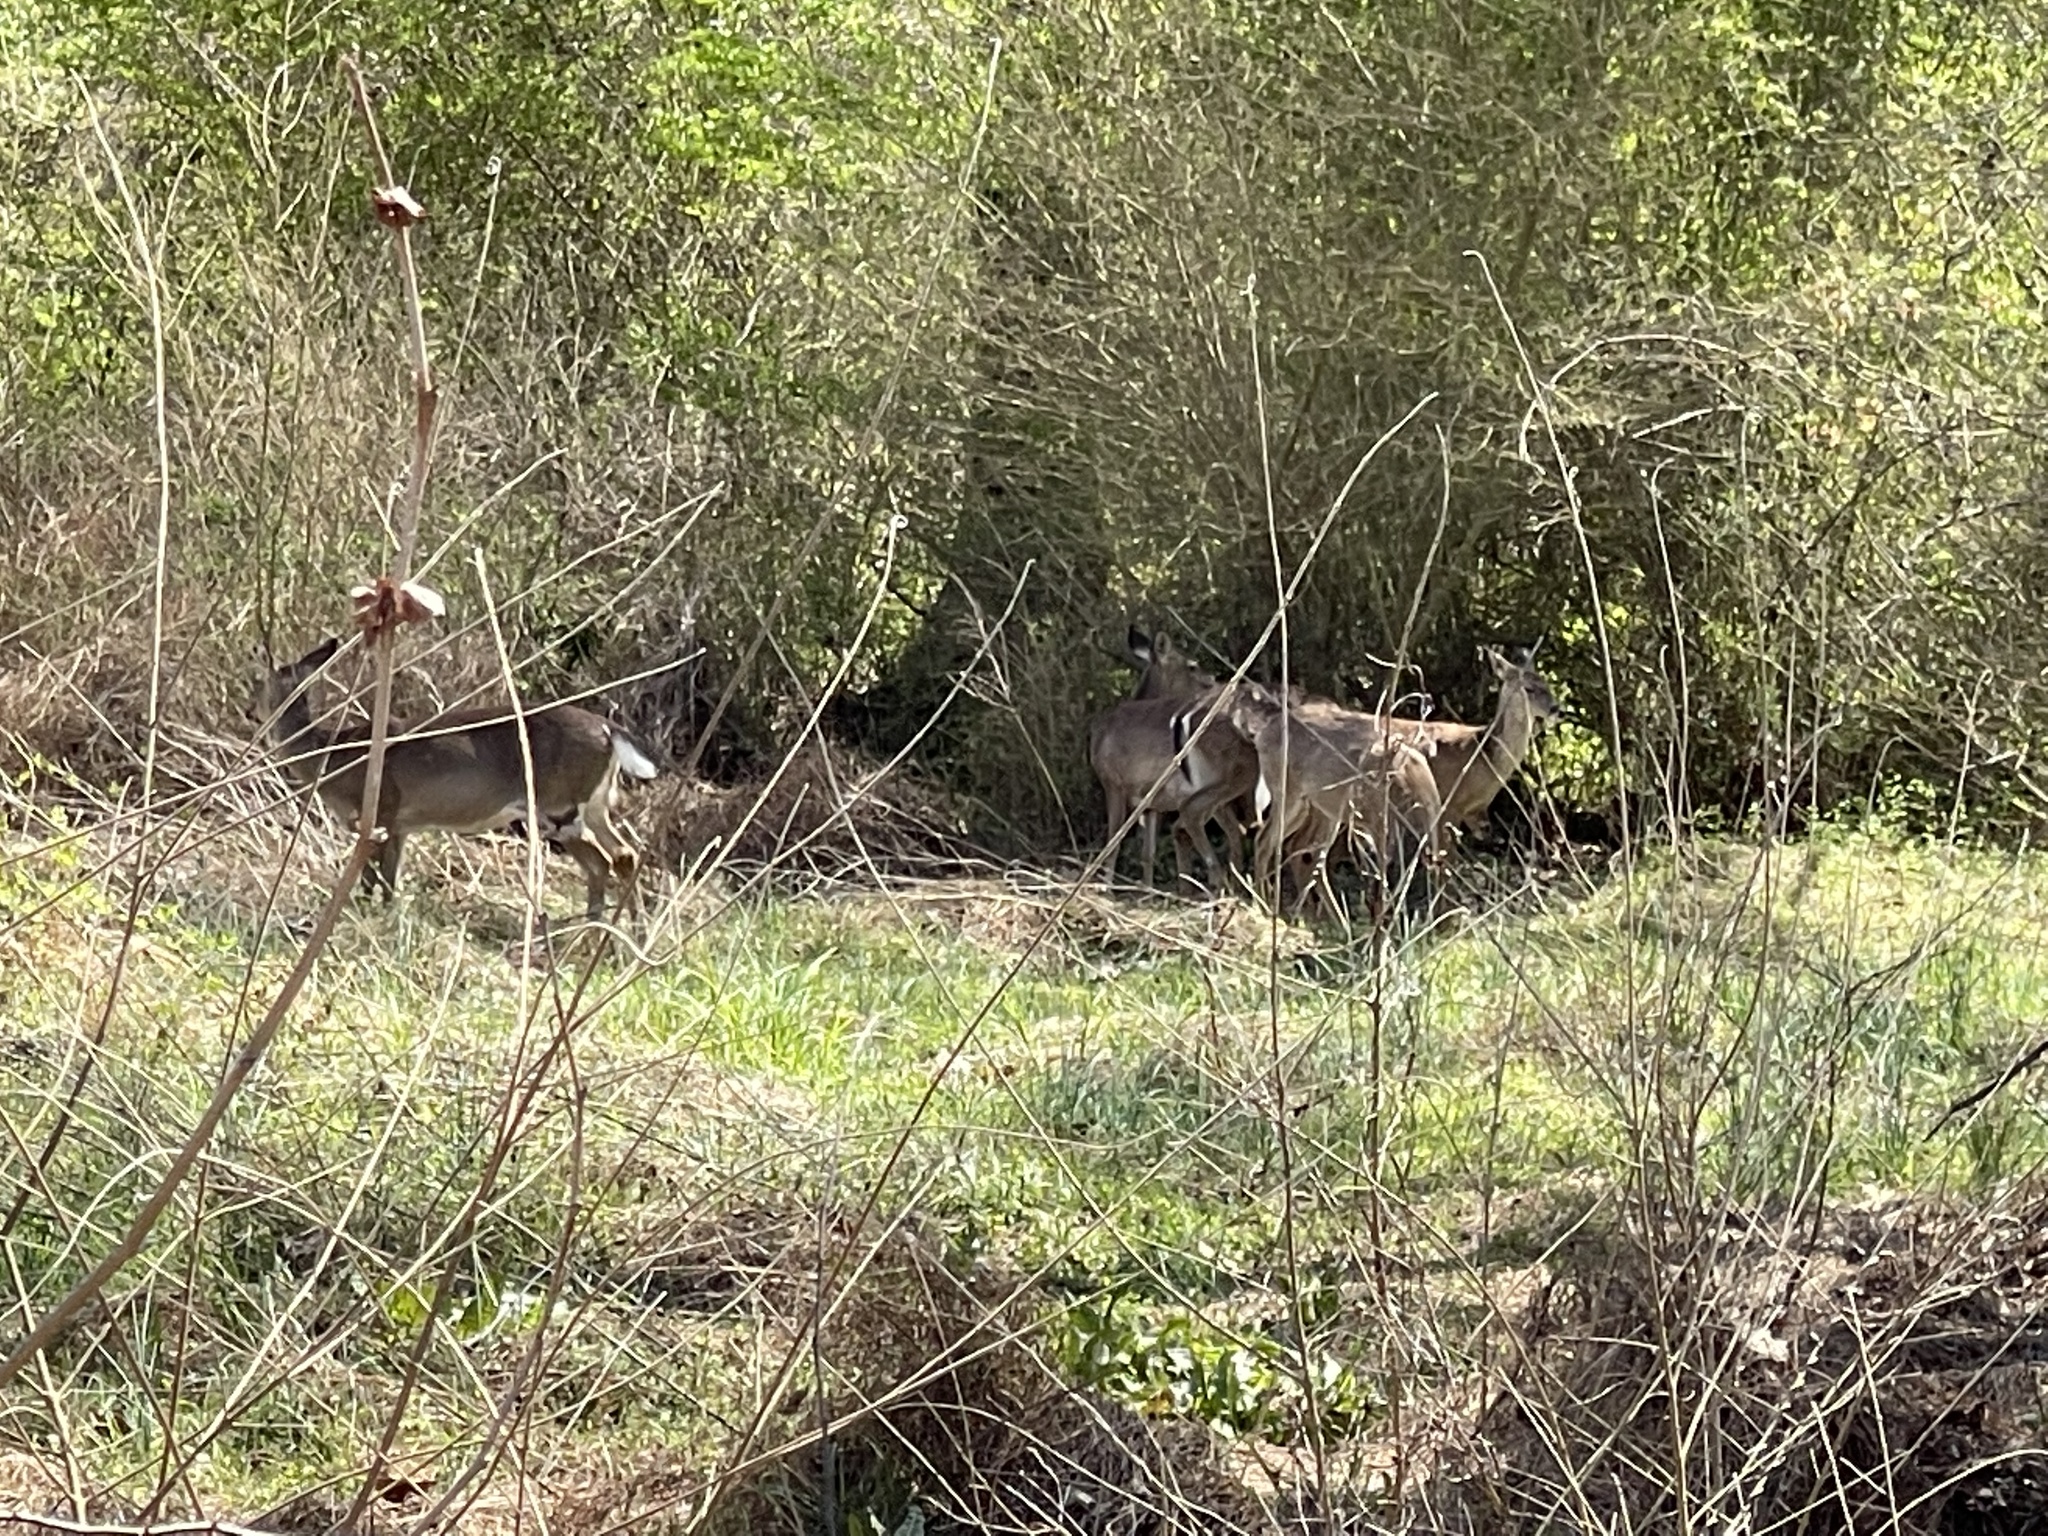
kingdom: Animalia
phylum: Chordata
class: Mammalia
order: Artiodactyla
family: Cervidae
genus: Odocoileus
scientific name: Odocoileus virginianus
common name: White-tailed deer
